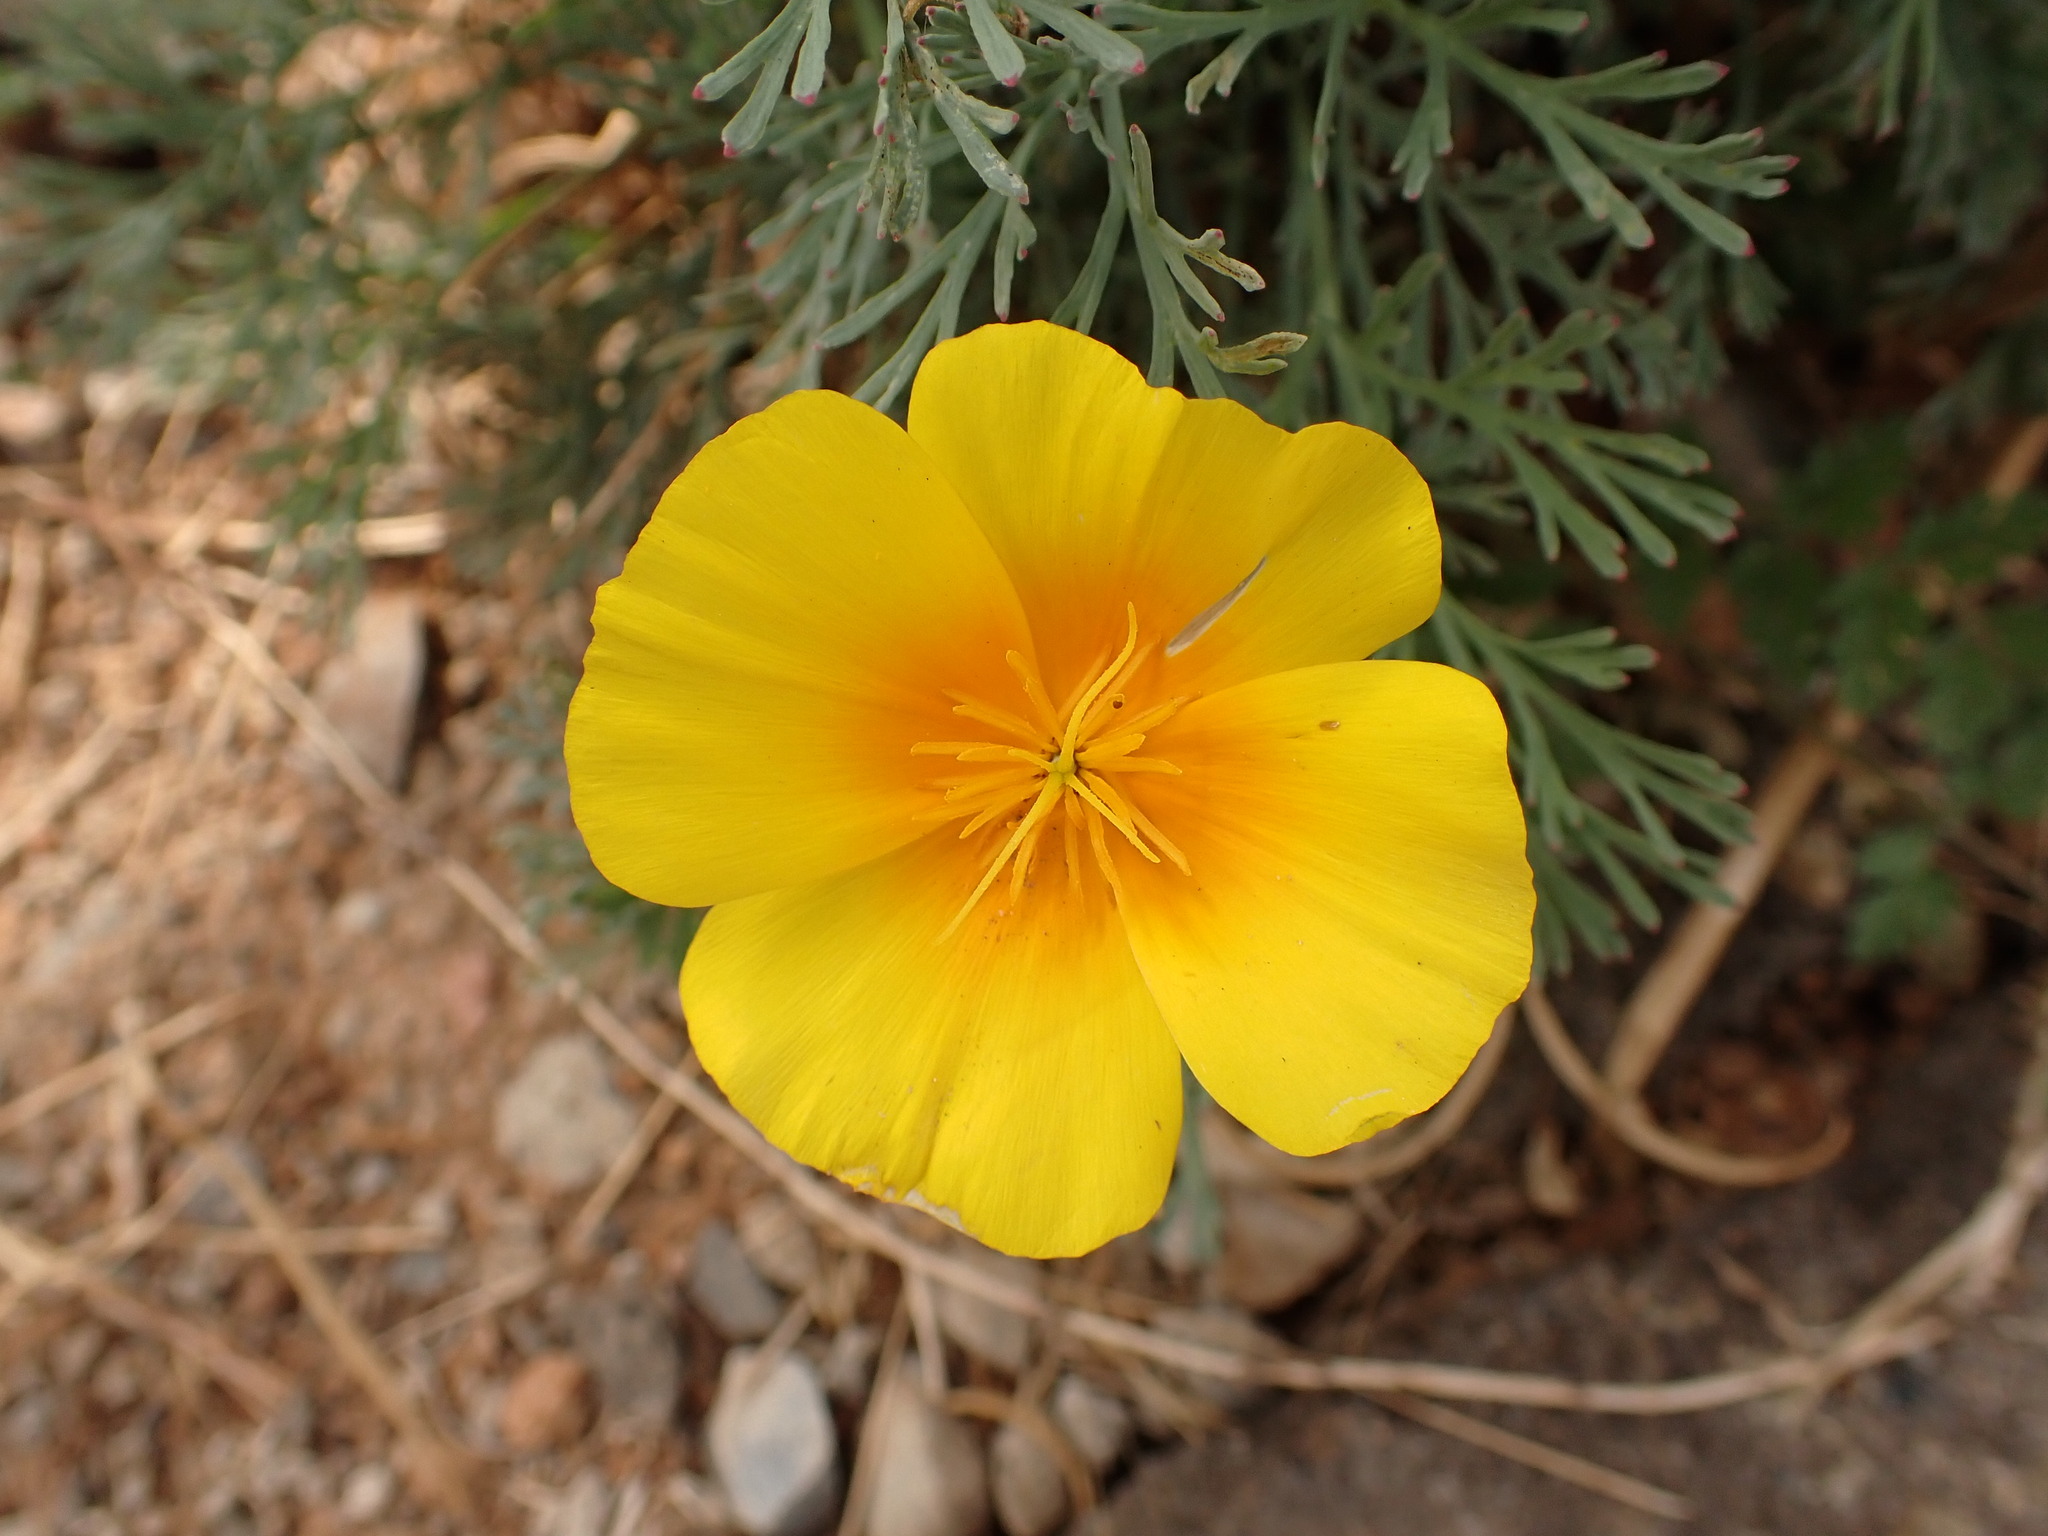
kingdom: Plantae
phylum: Tracheophyta
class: Magnoliopsida
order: Ranunculales
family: Papaveraceae
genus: Eschscholzia
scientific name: Eschscholzia californica
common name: California poppy
